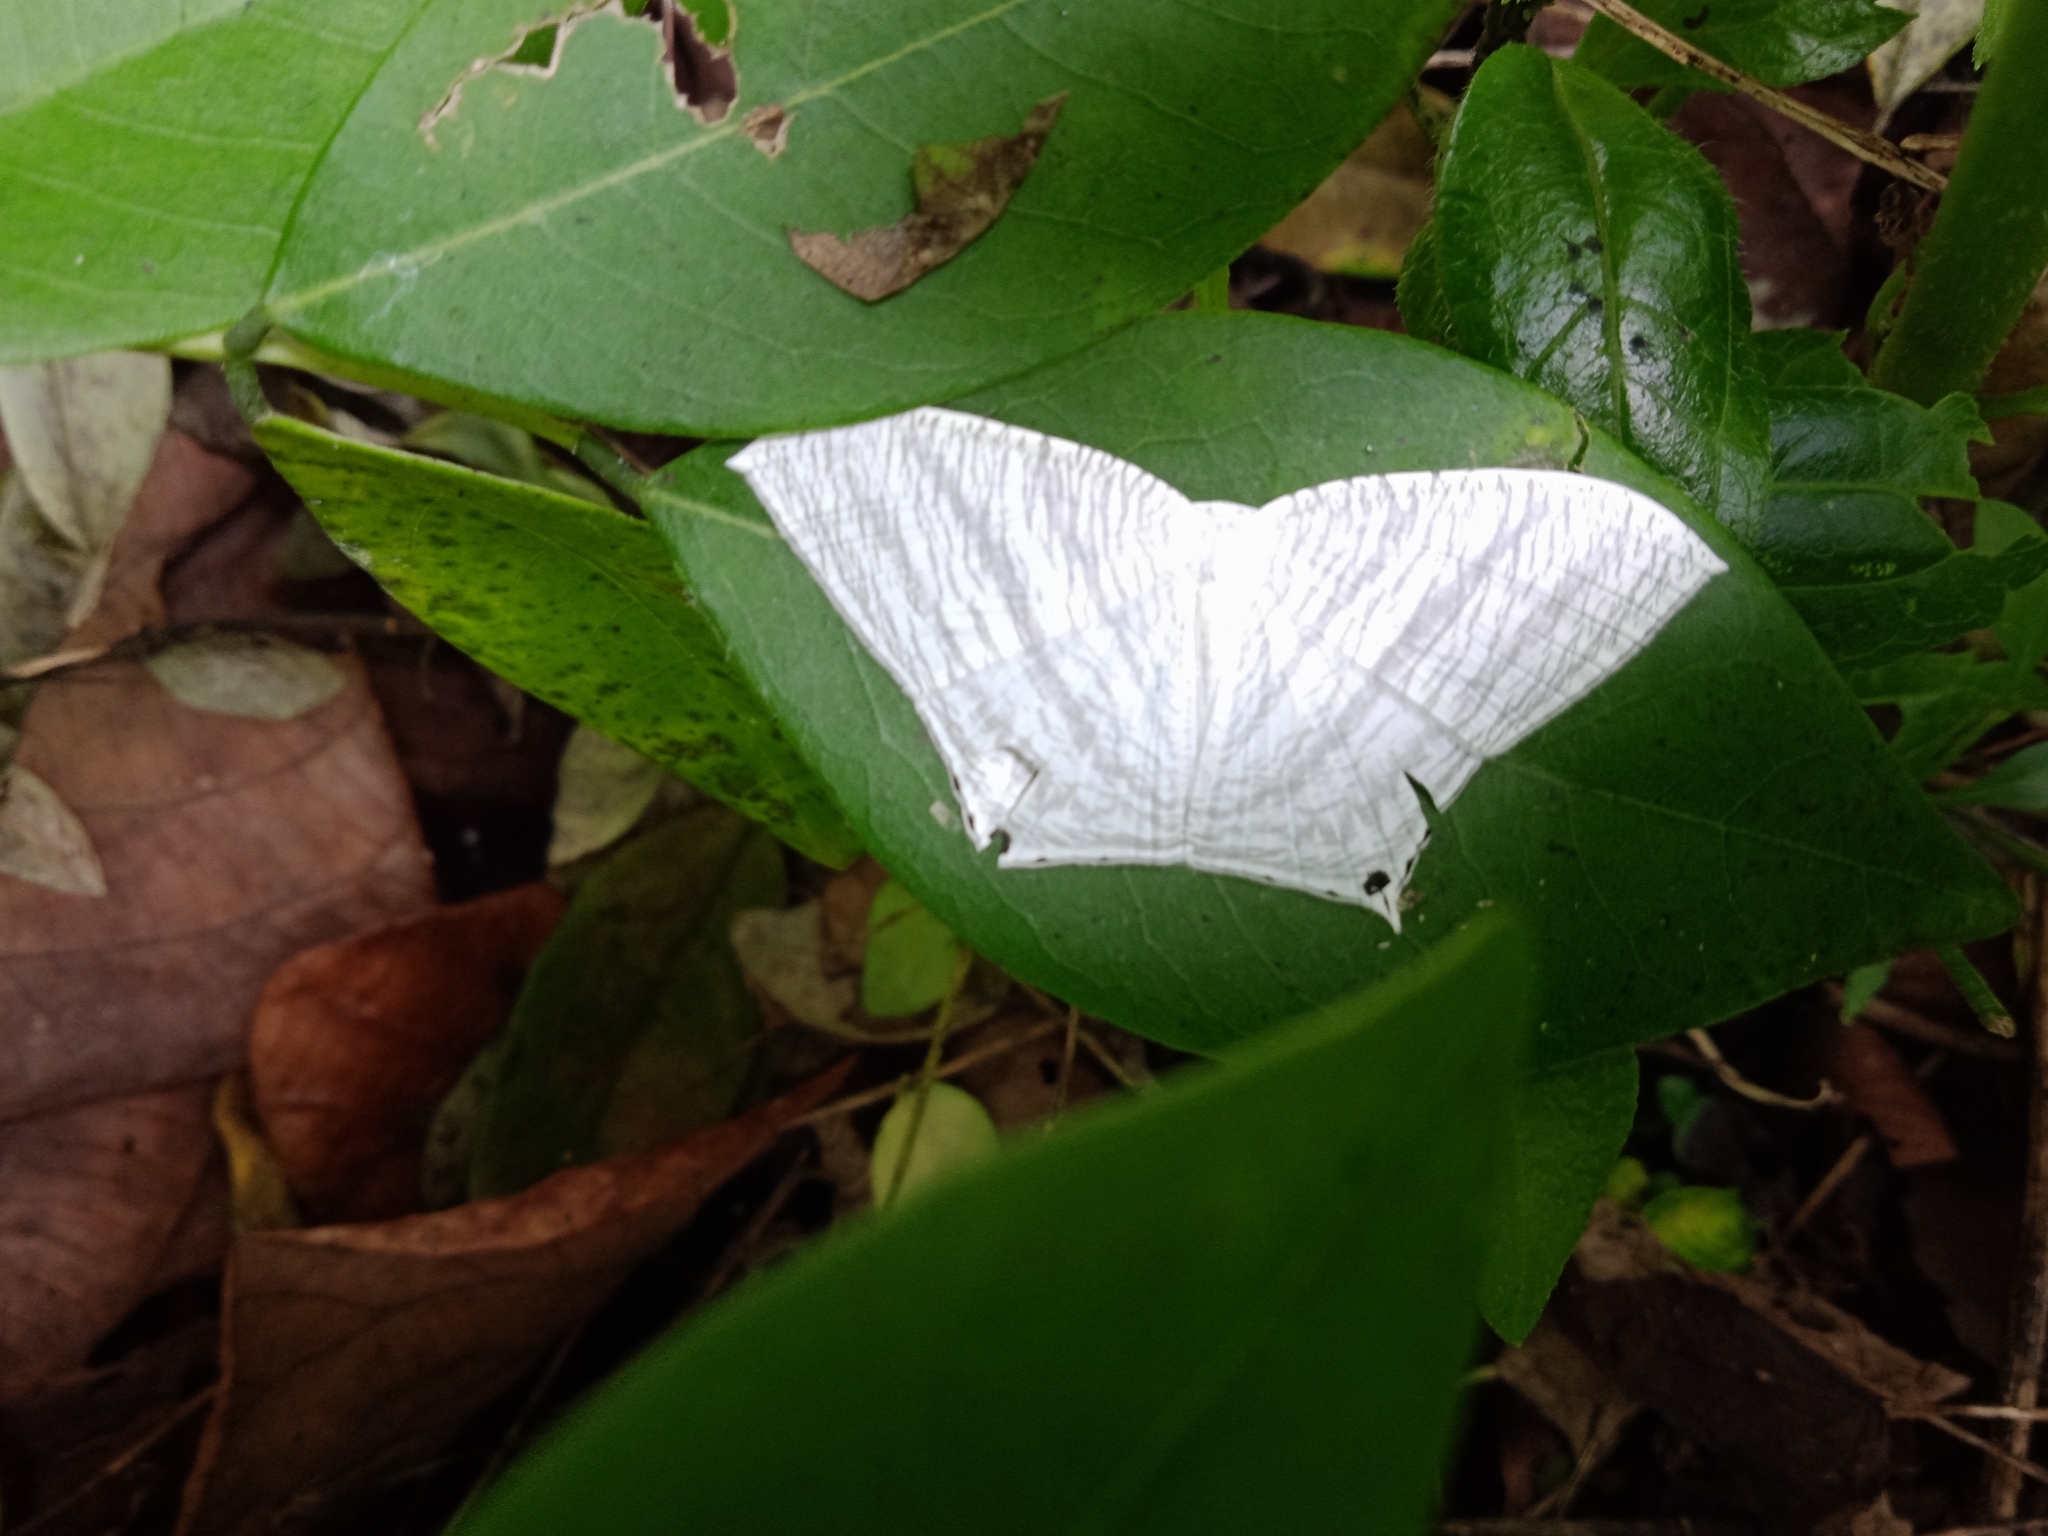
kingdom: Animalia
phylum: Arthropoda
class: Insecta
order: Lepidoptera
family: Uraniidae
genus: Micronia
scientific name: Micronia aculeata
